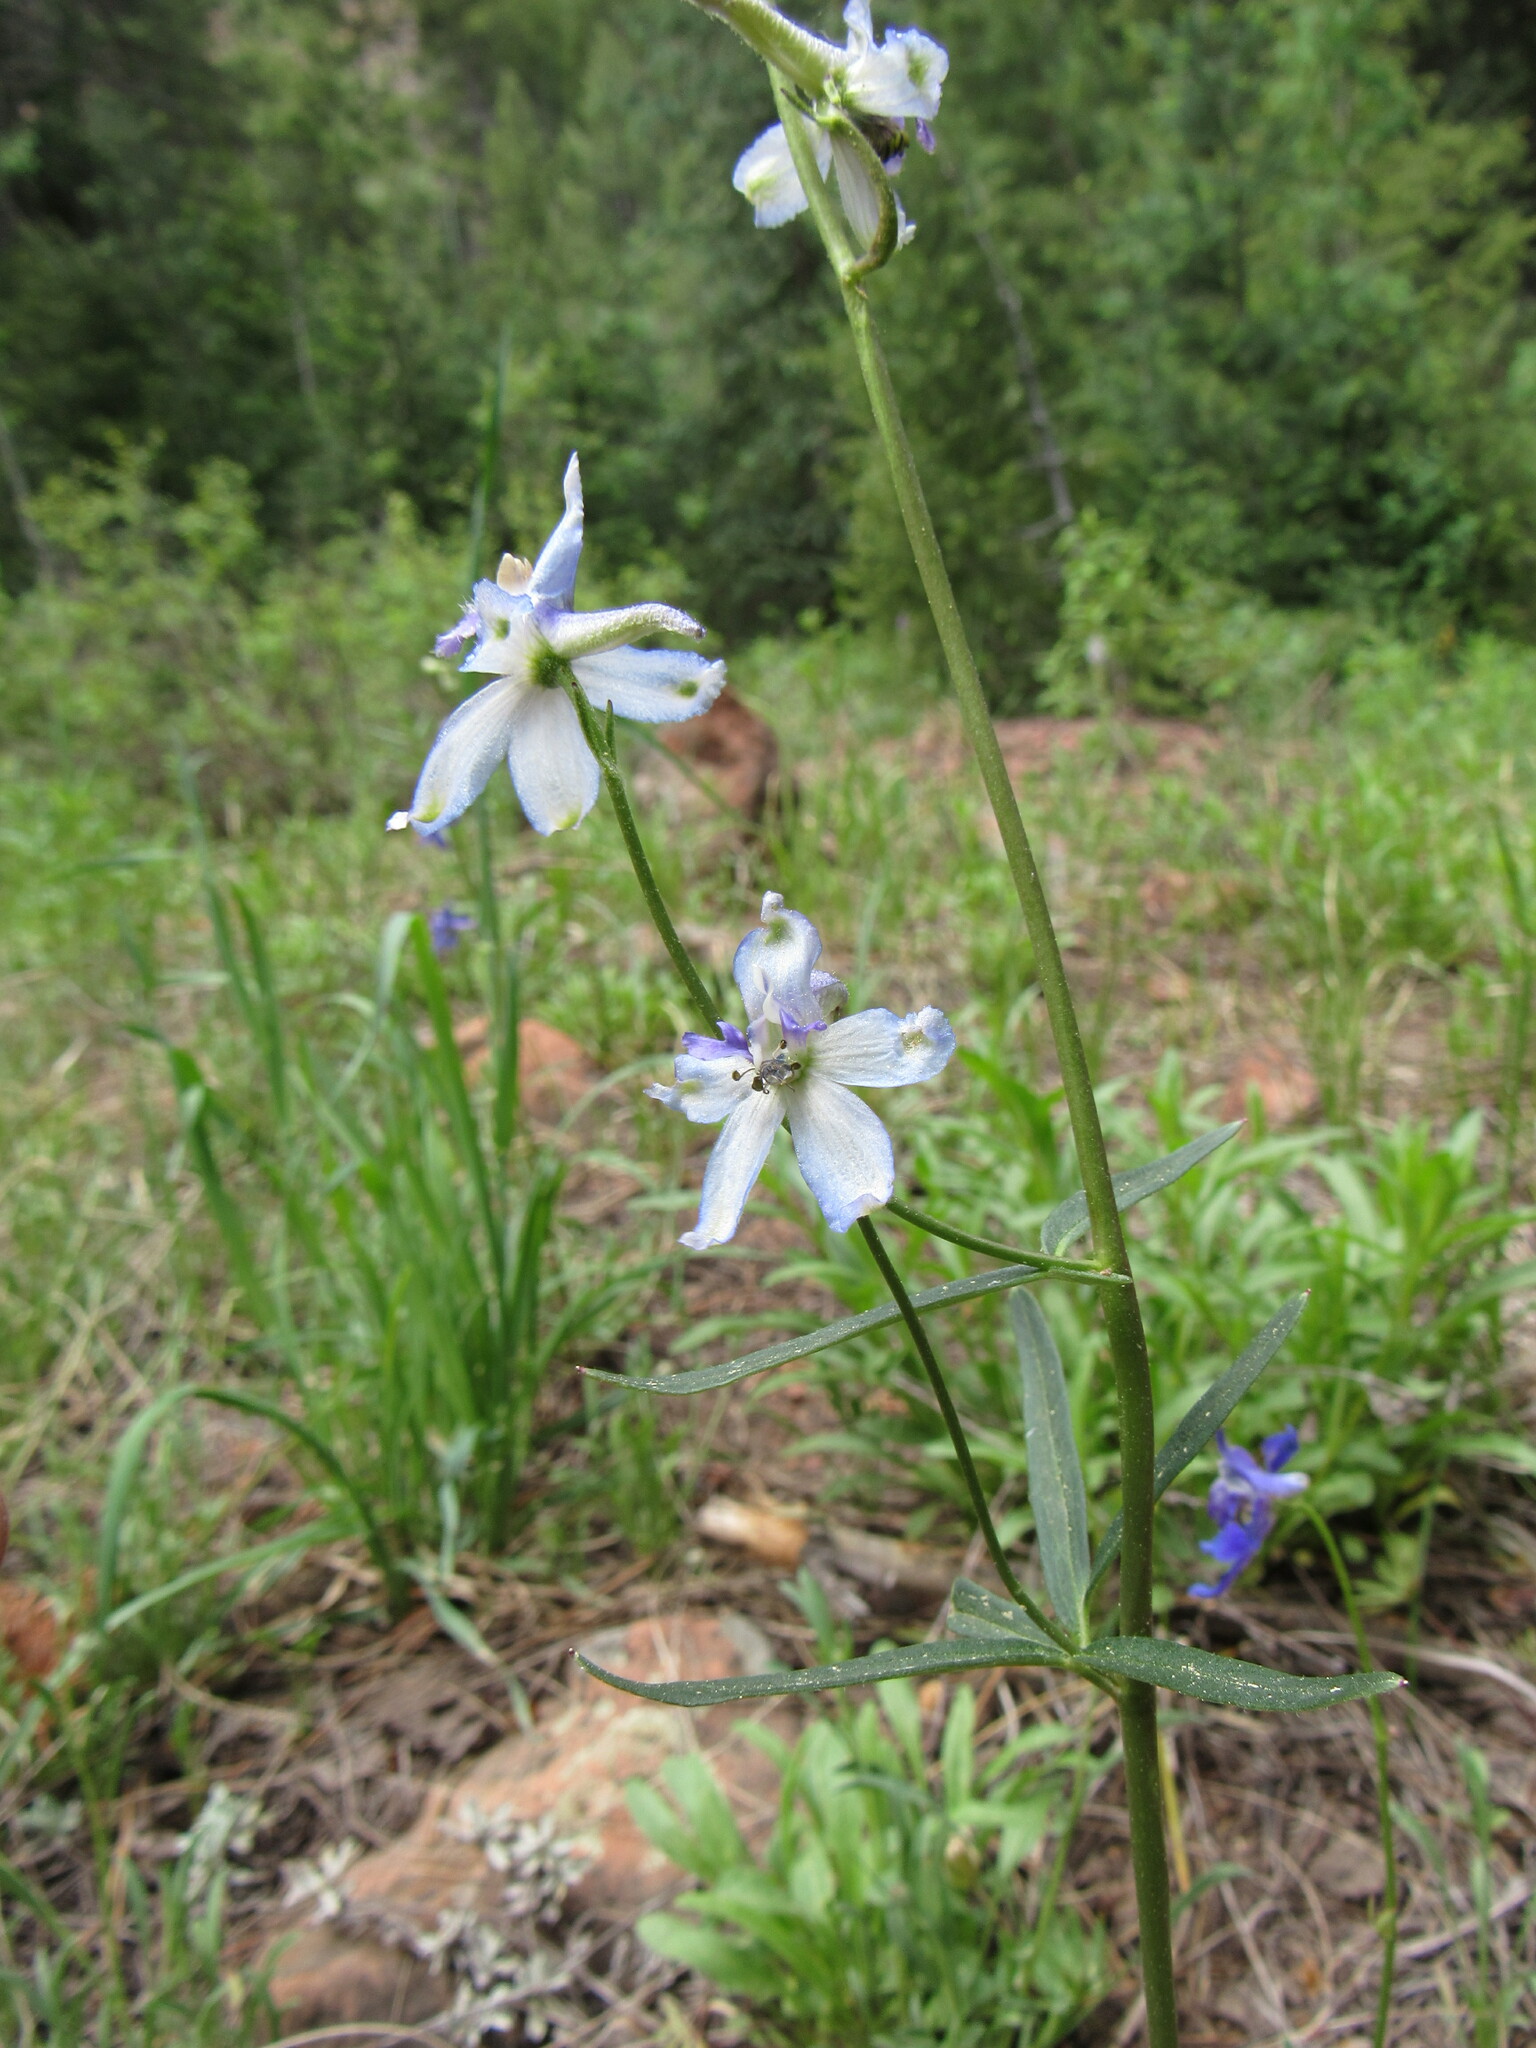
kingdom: Plantae
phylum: Tracheophyta
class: Magnoliopsida
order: Ranunculales
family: Ranunculaceae
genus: Delphinium
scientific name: Delphinium nuttallianum
